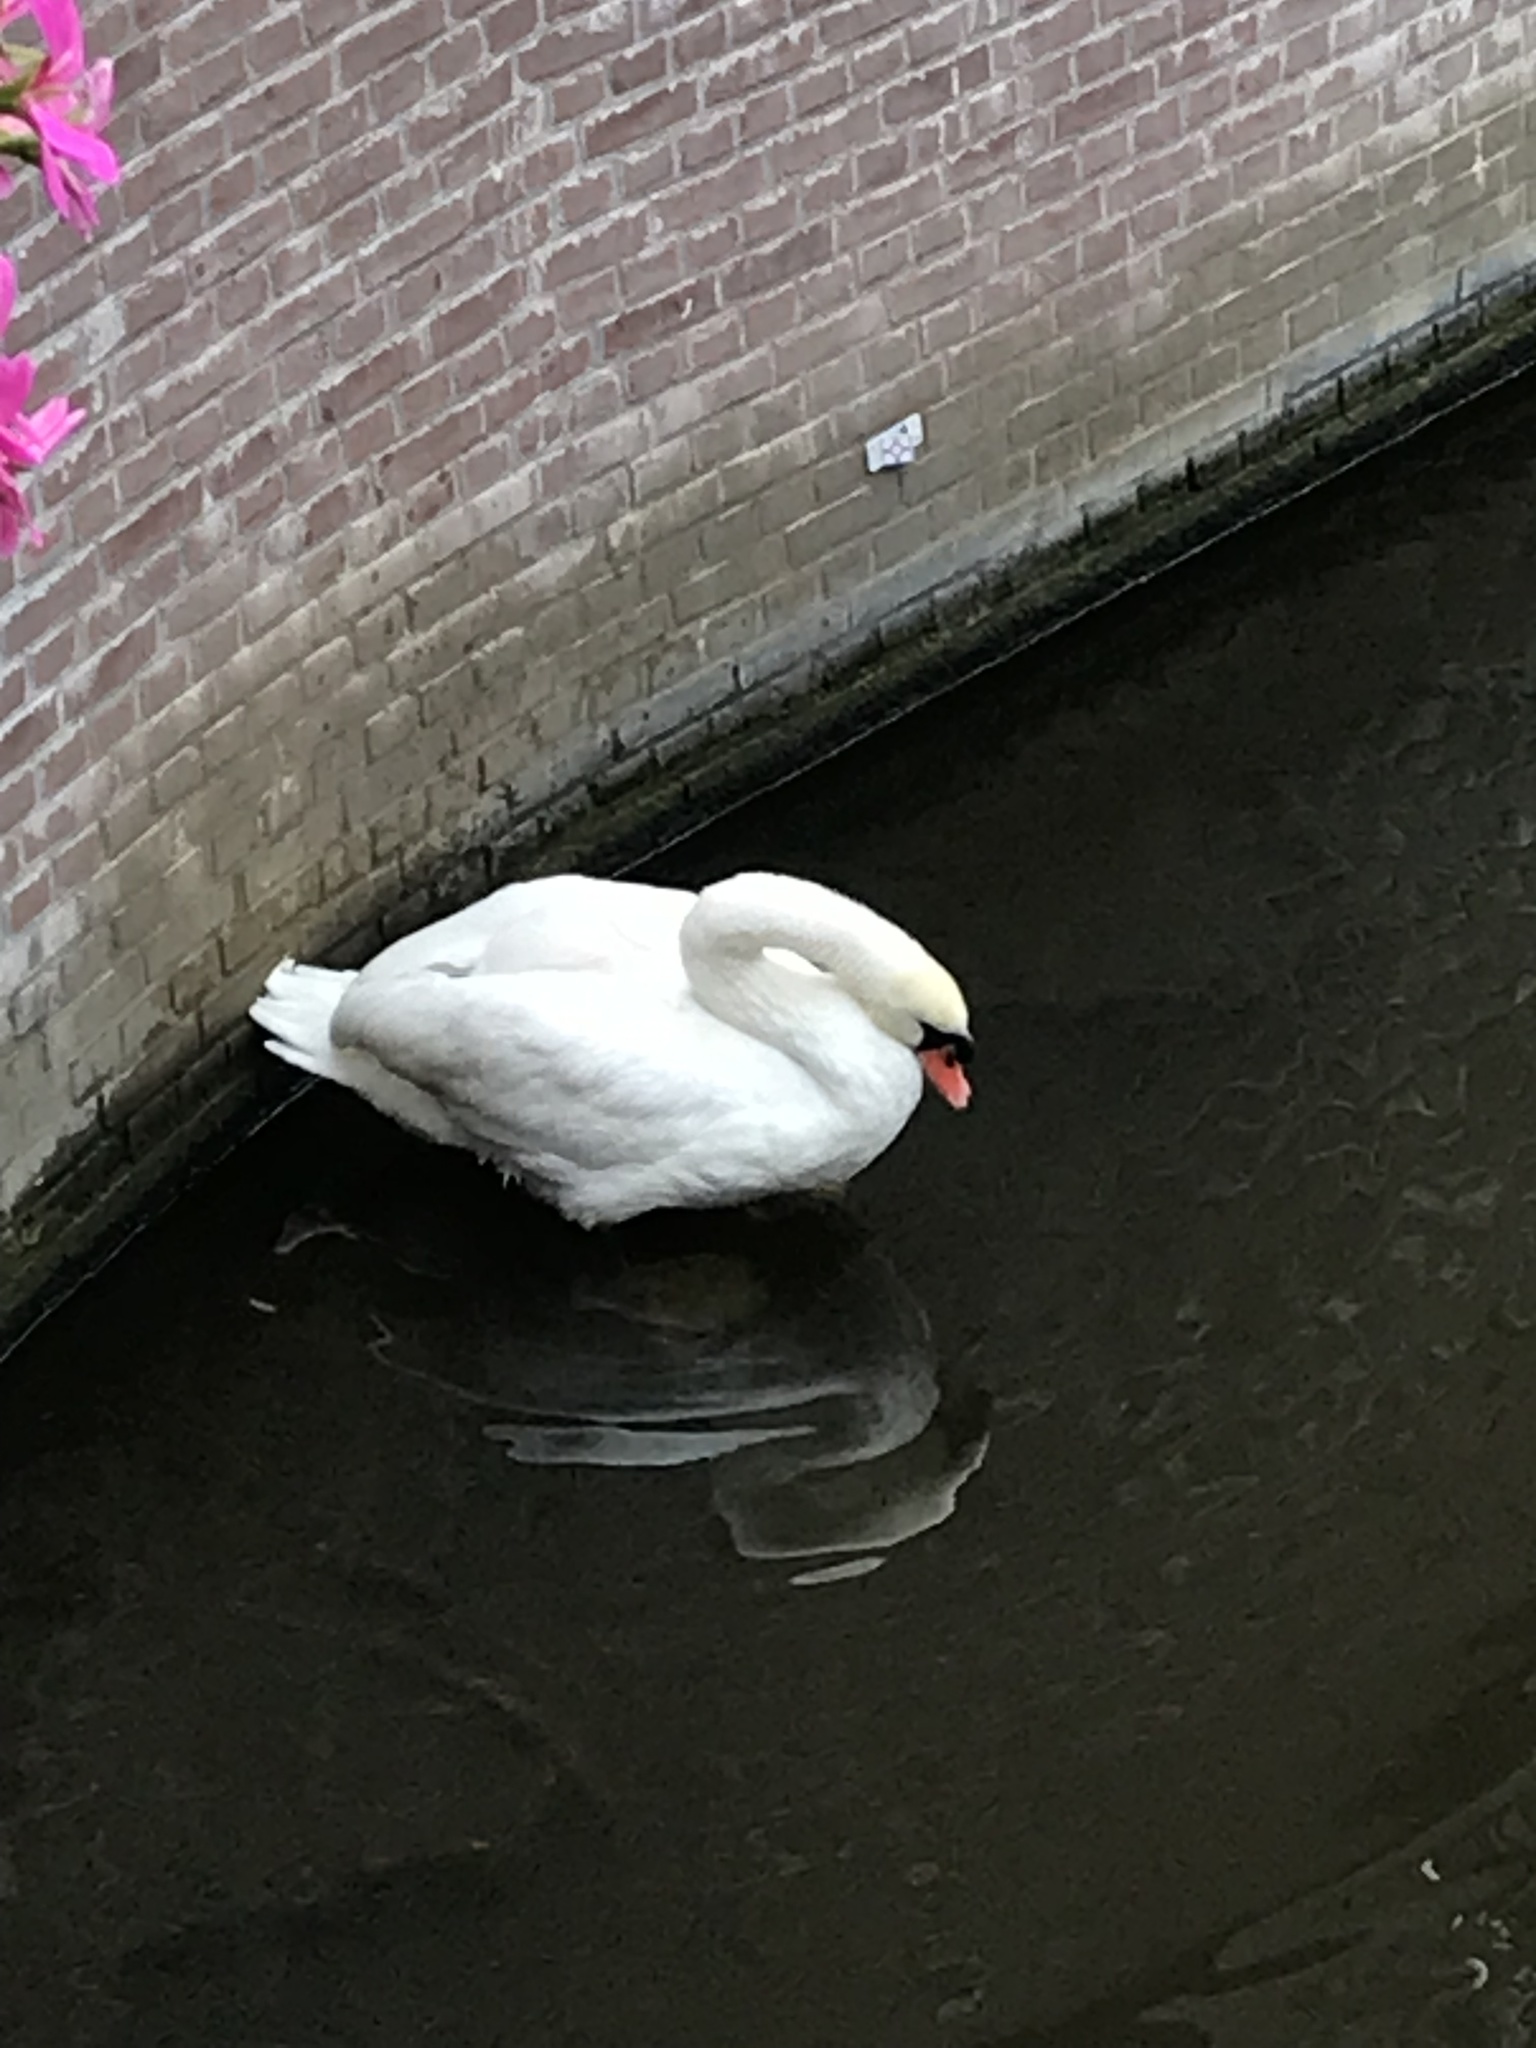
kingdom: Animalia
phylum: Chordata
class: Aves
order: Anseriformes
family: Anatidae
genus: Cygnus
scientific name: Cygnus olor
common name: Mute swan
